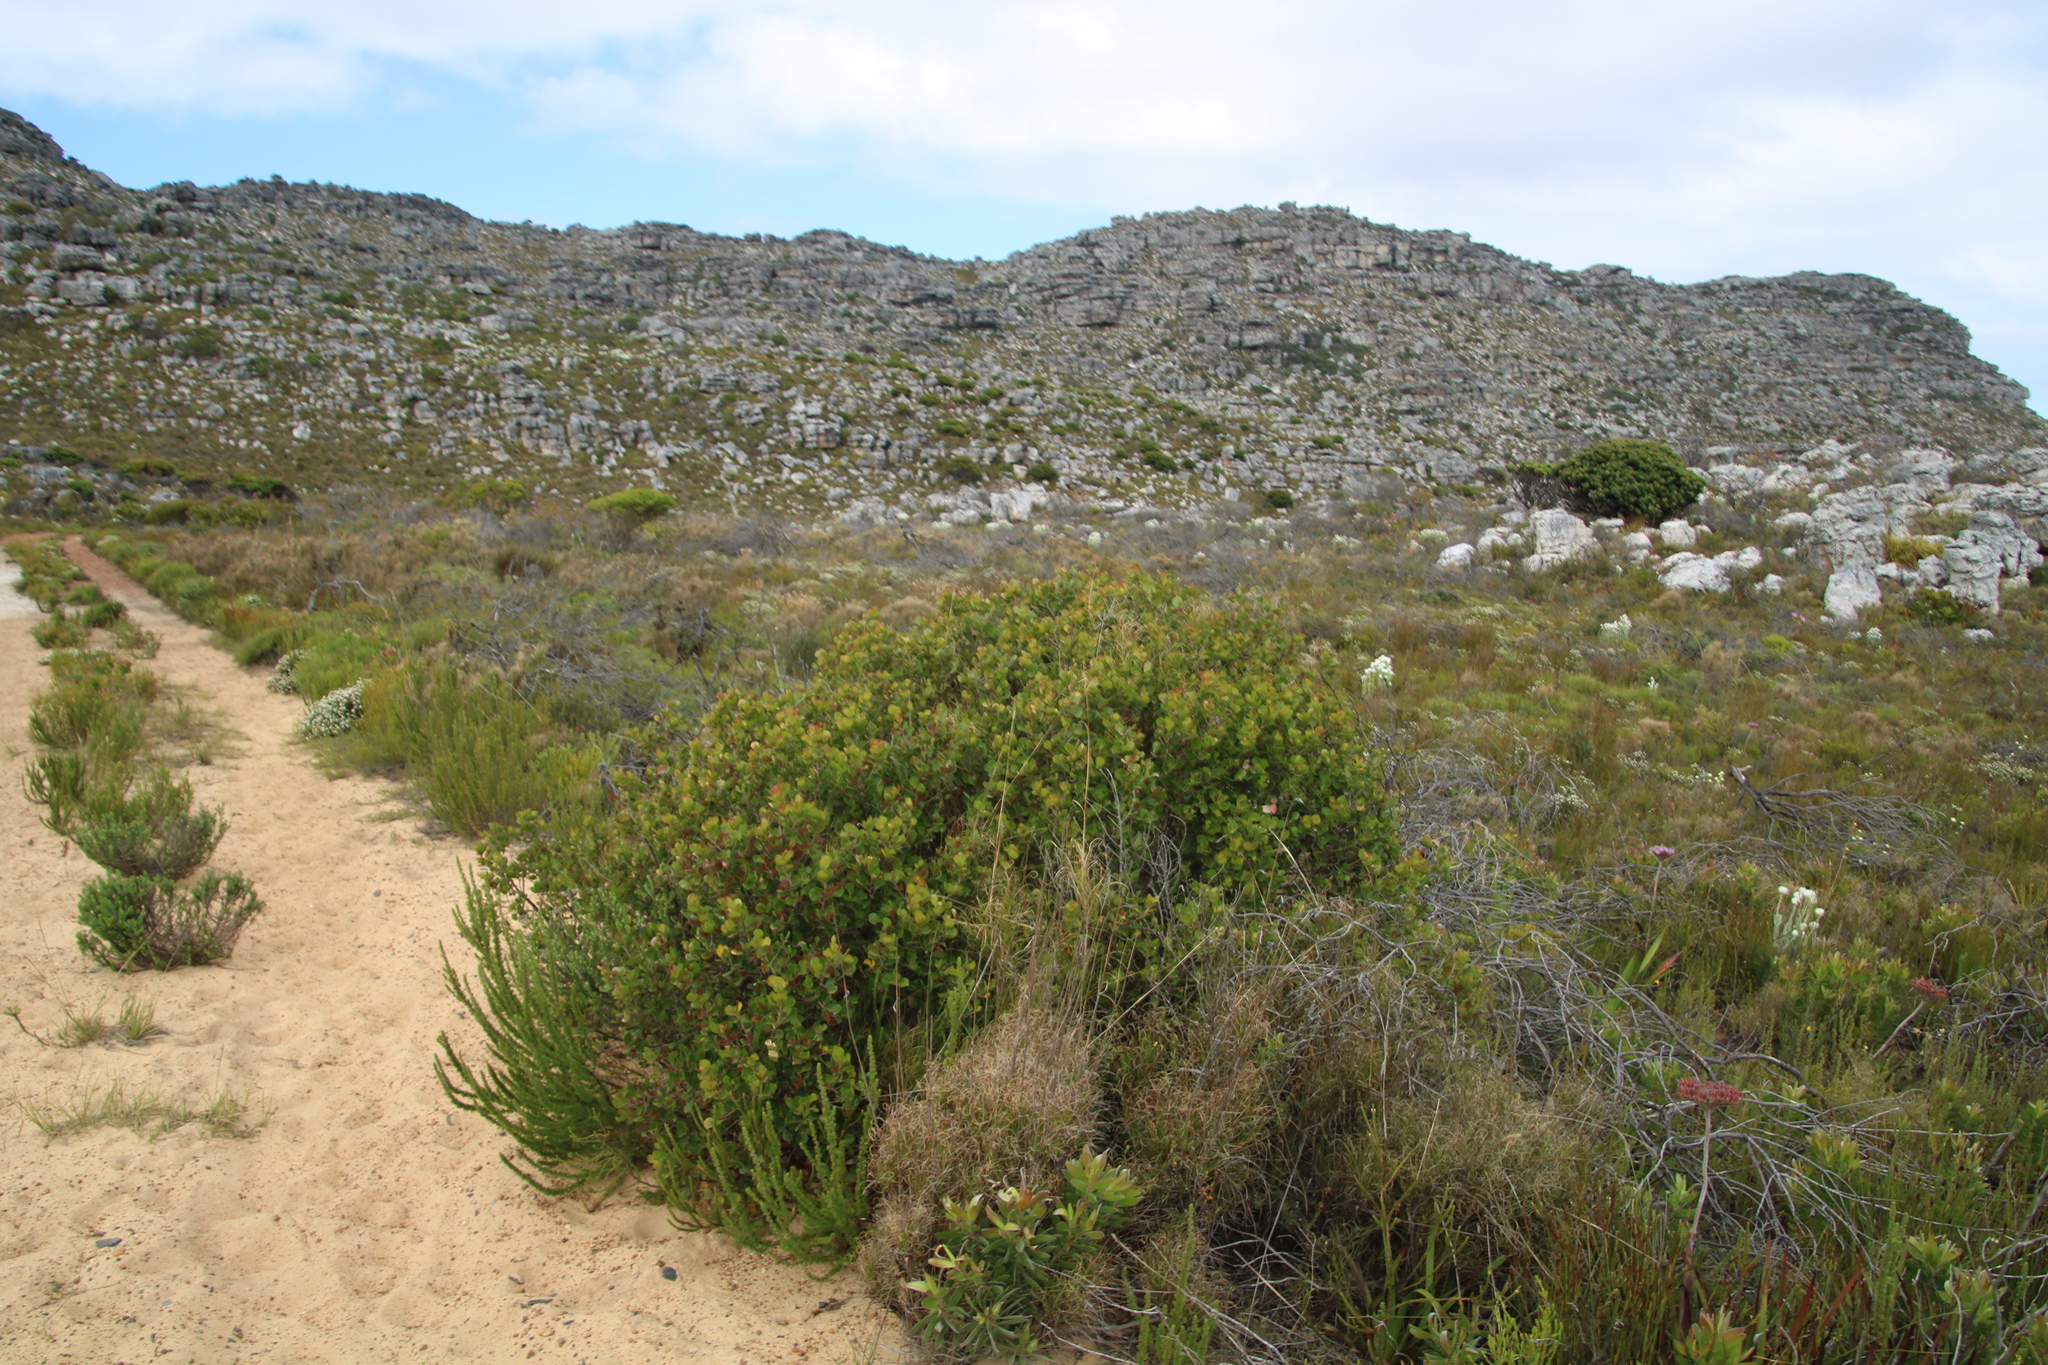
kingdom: Plantae
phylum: Tracheophyta
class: Magnoliopsida
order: Sapindales
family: Anacardiaceae
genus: Searsia
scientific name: Searsia lucida
